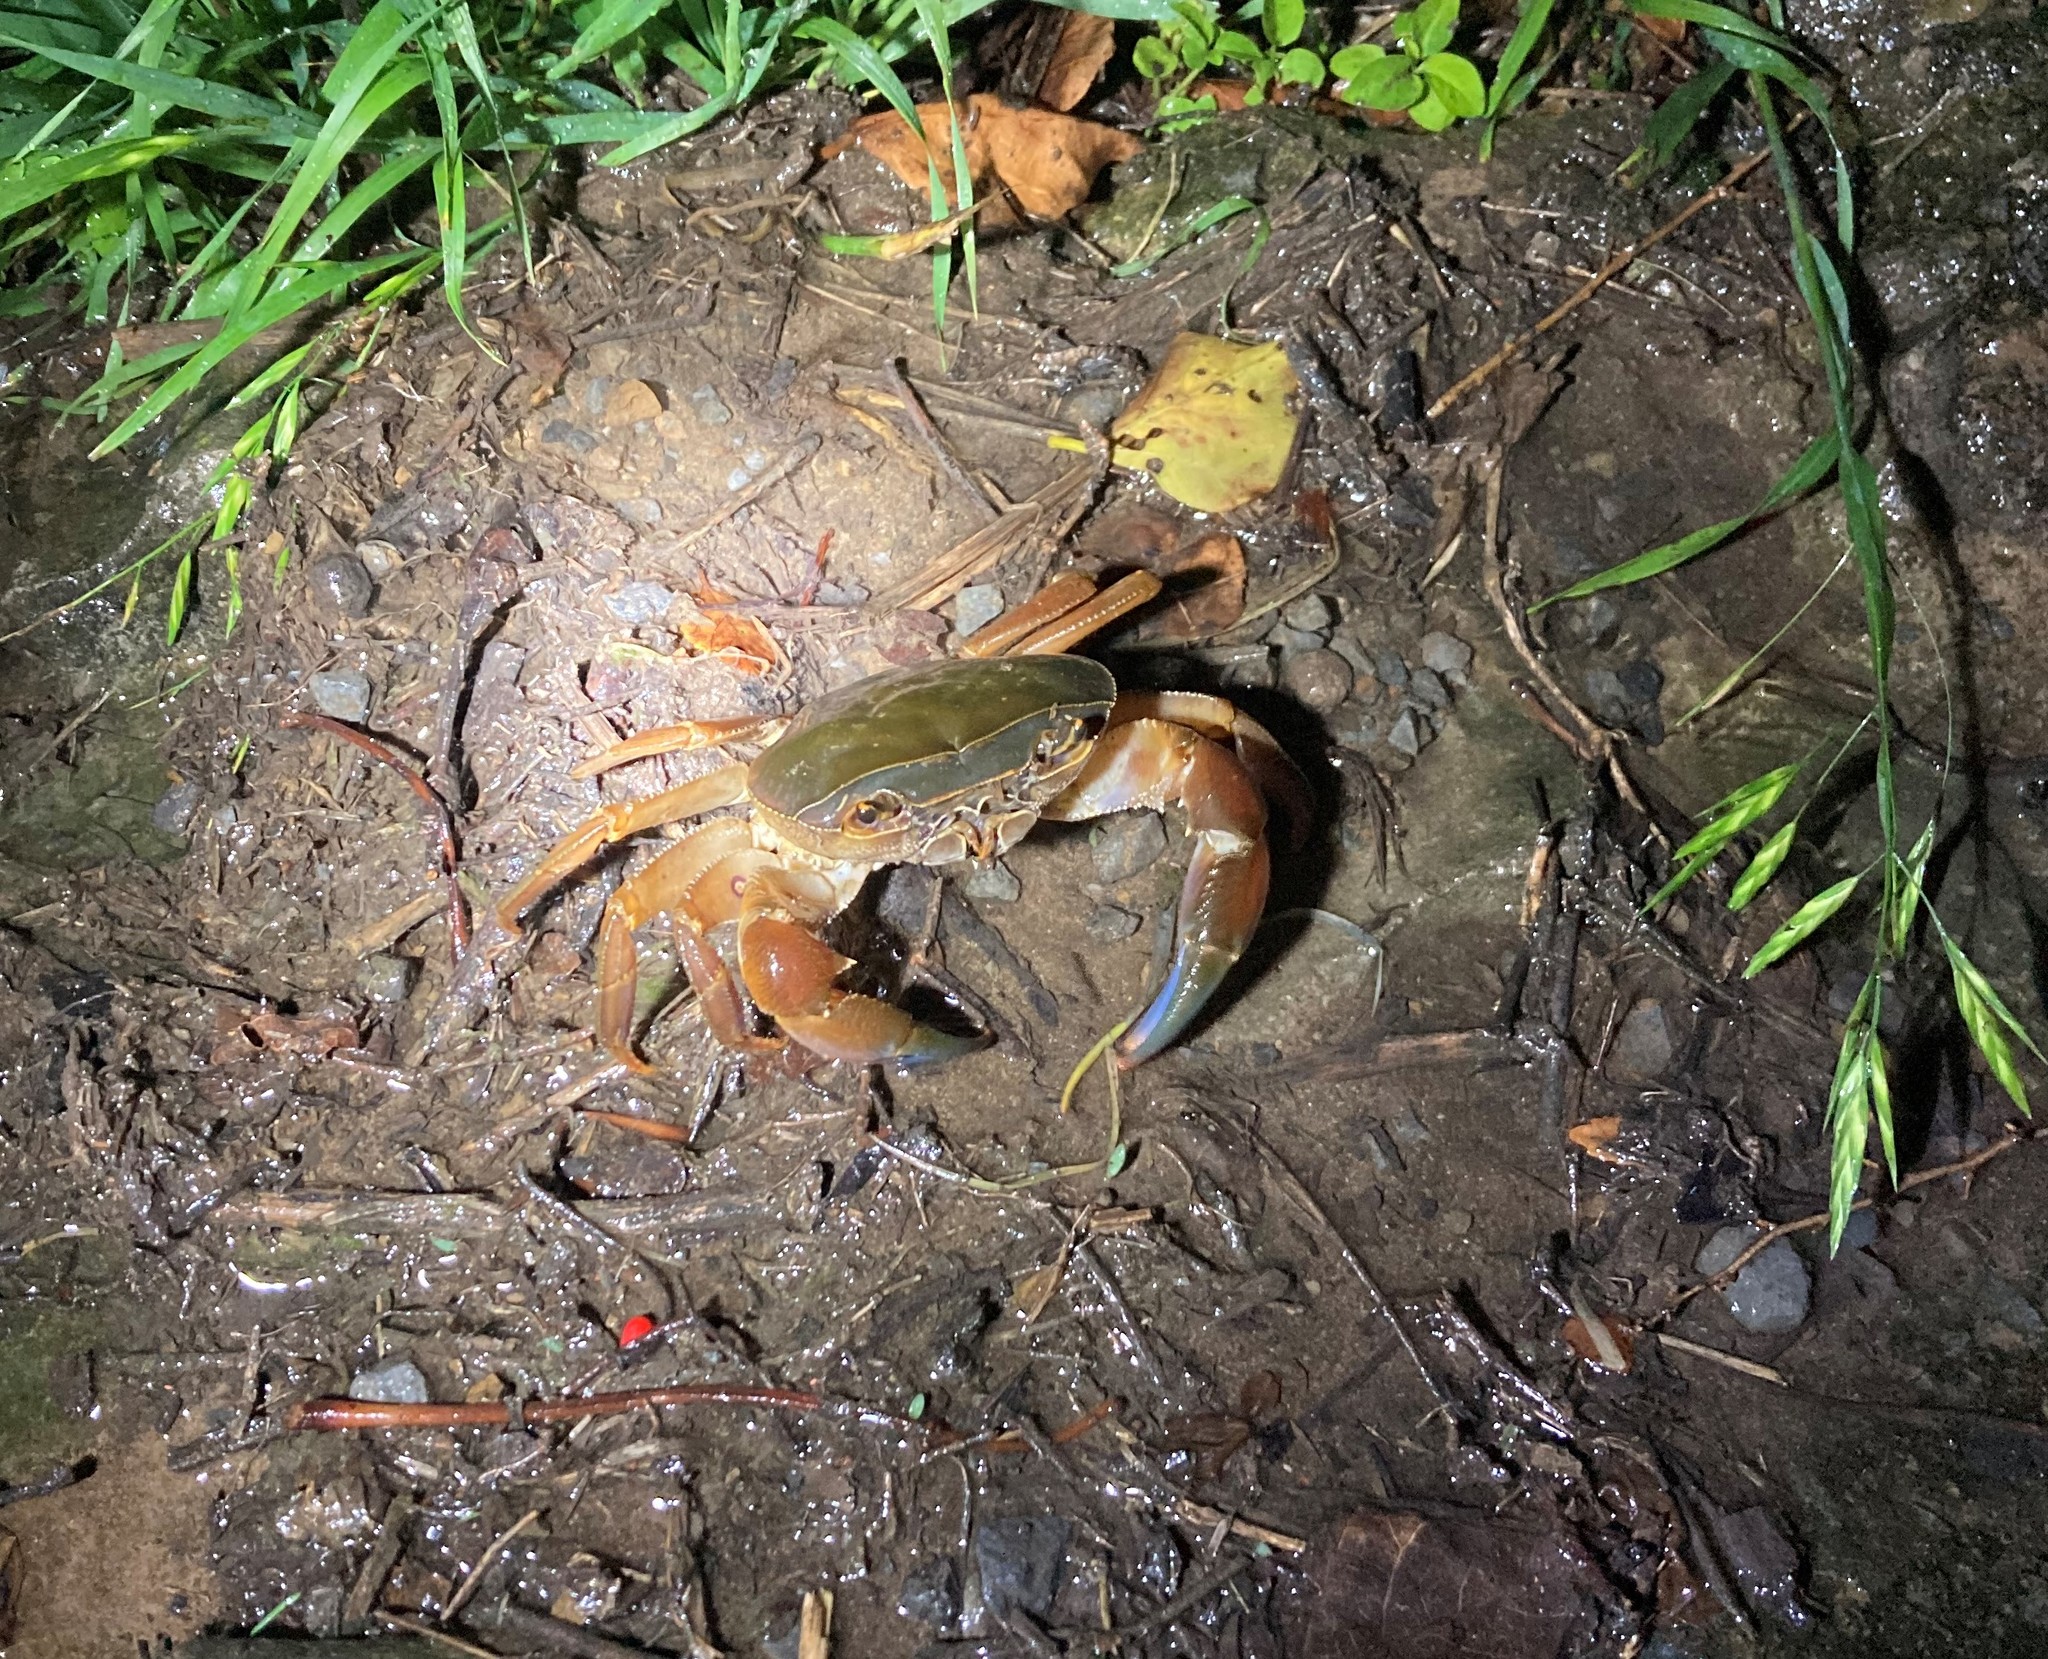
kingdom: Animalia
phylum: Arthropoda
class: Malacostraca
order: Decapoda
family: Potamonautidae
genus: Potamonautes
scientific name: Potamonautes danielsi
